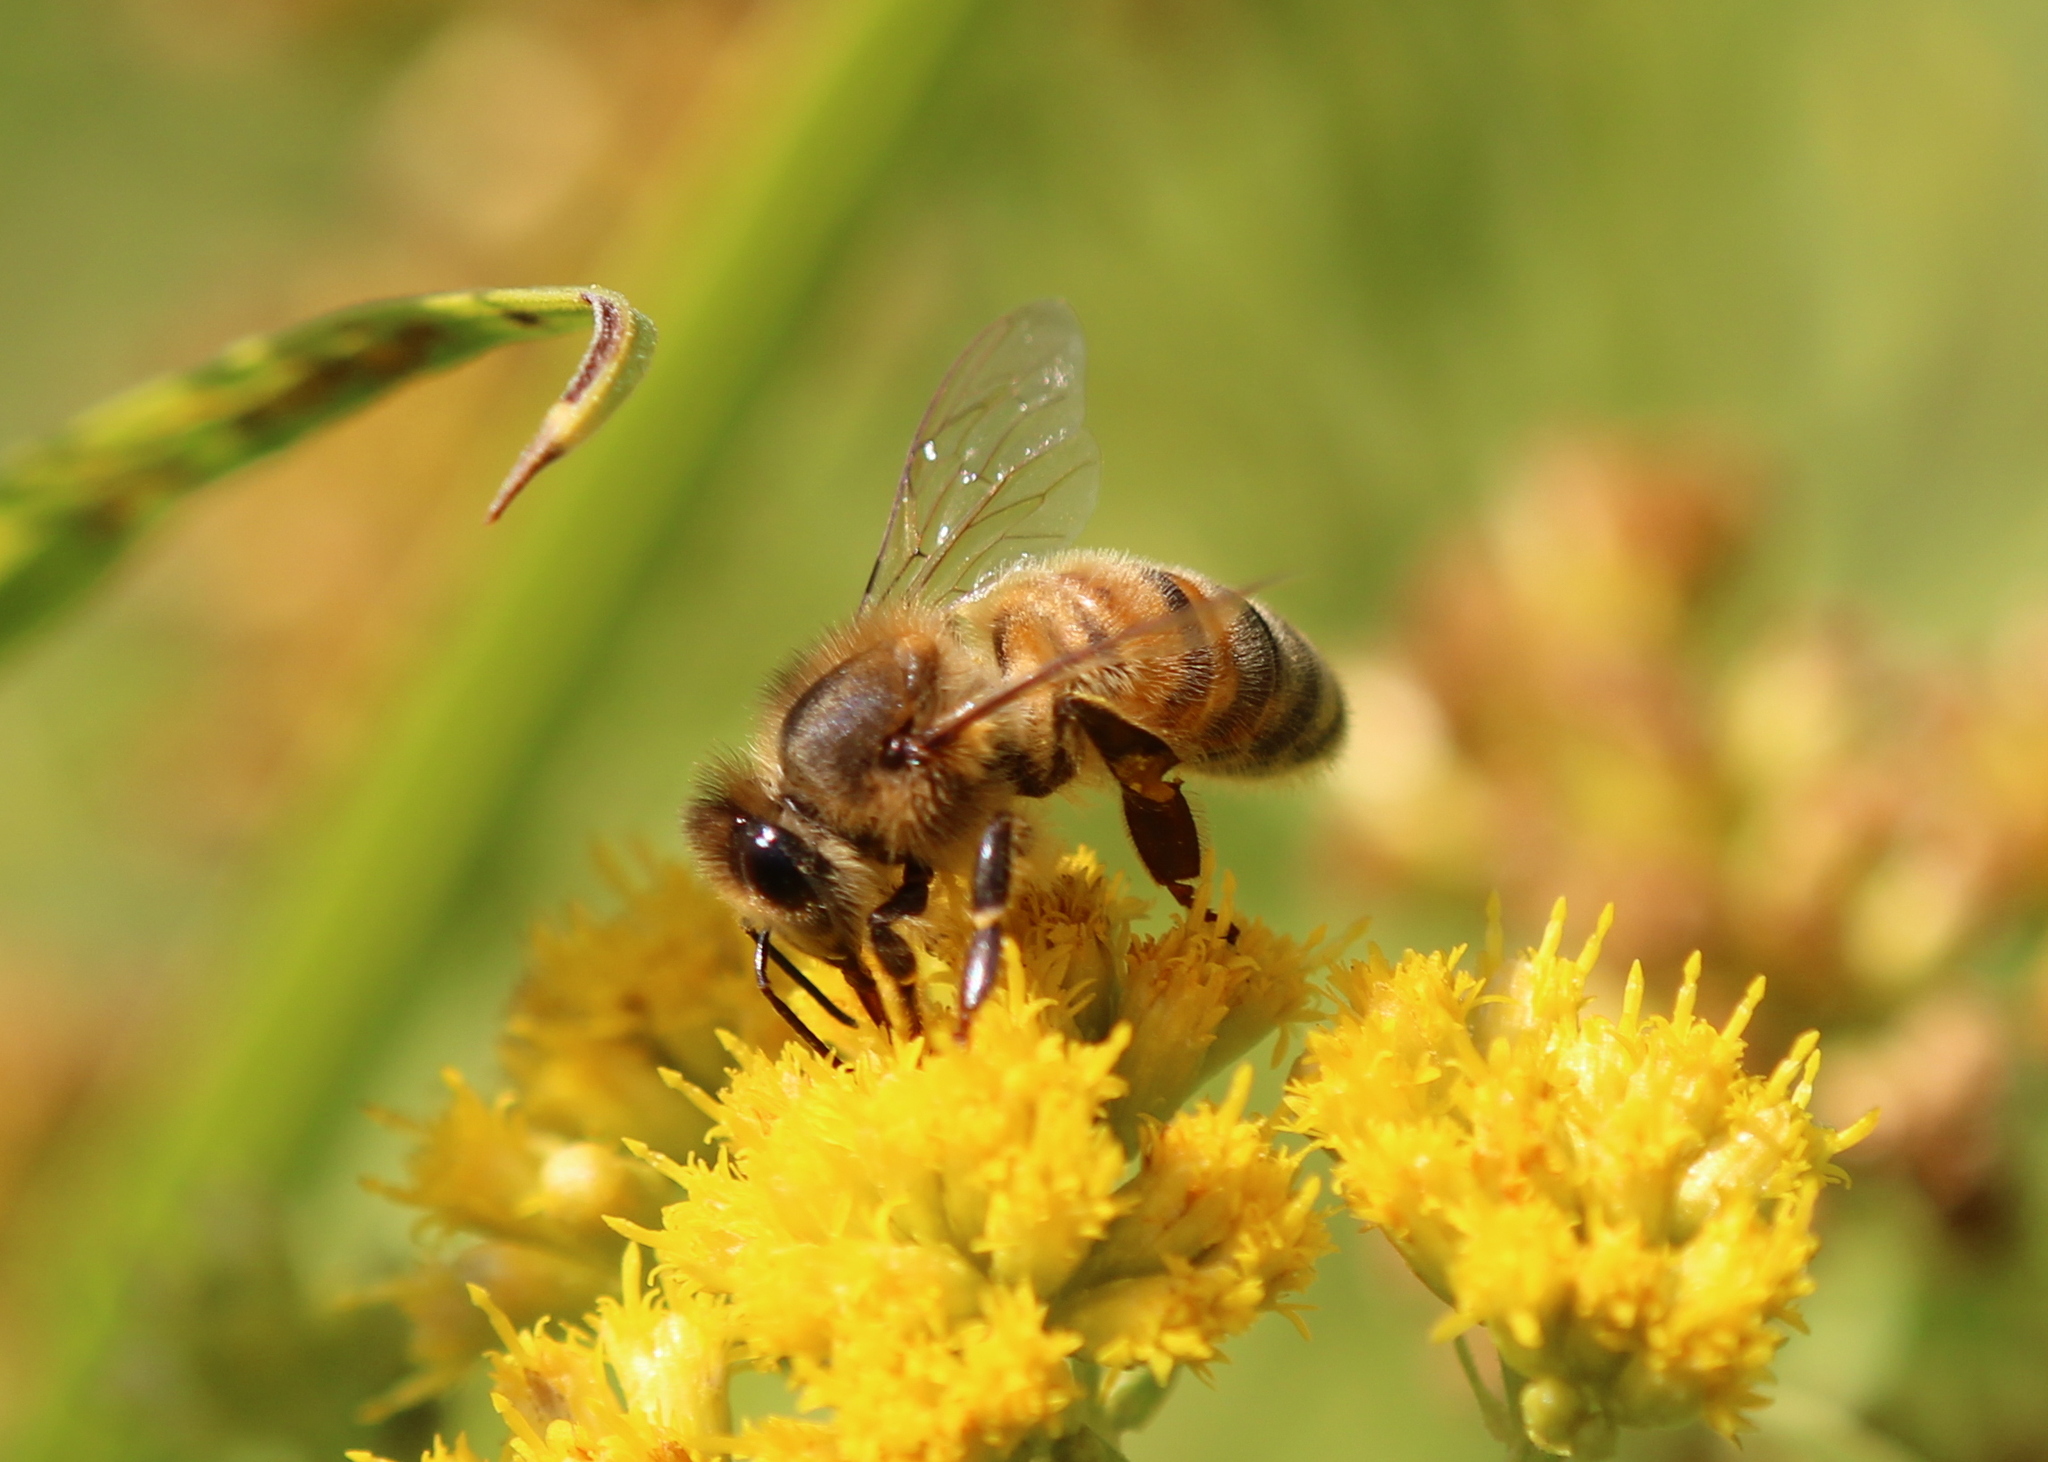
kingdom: Animalia
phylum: Arthropoda
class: Insecta
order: Hymenoptera
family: Apidae
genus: Apis
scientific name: Apis mellifera
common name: Honey bee
